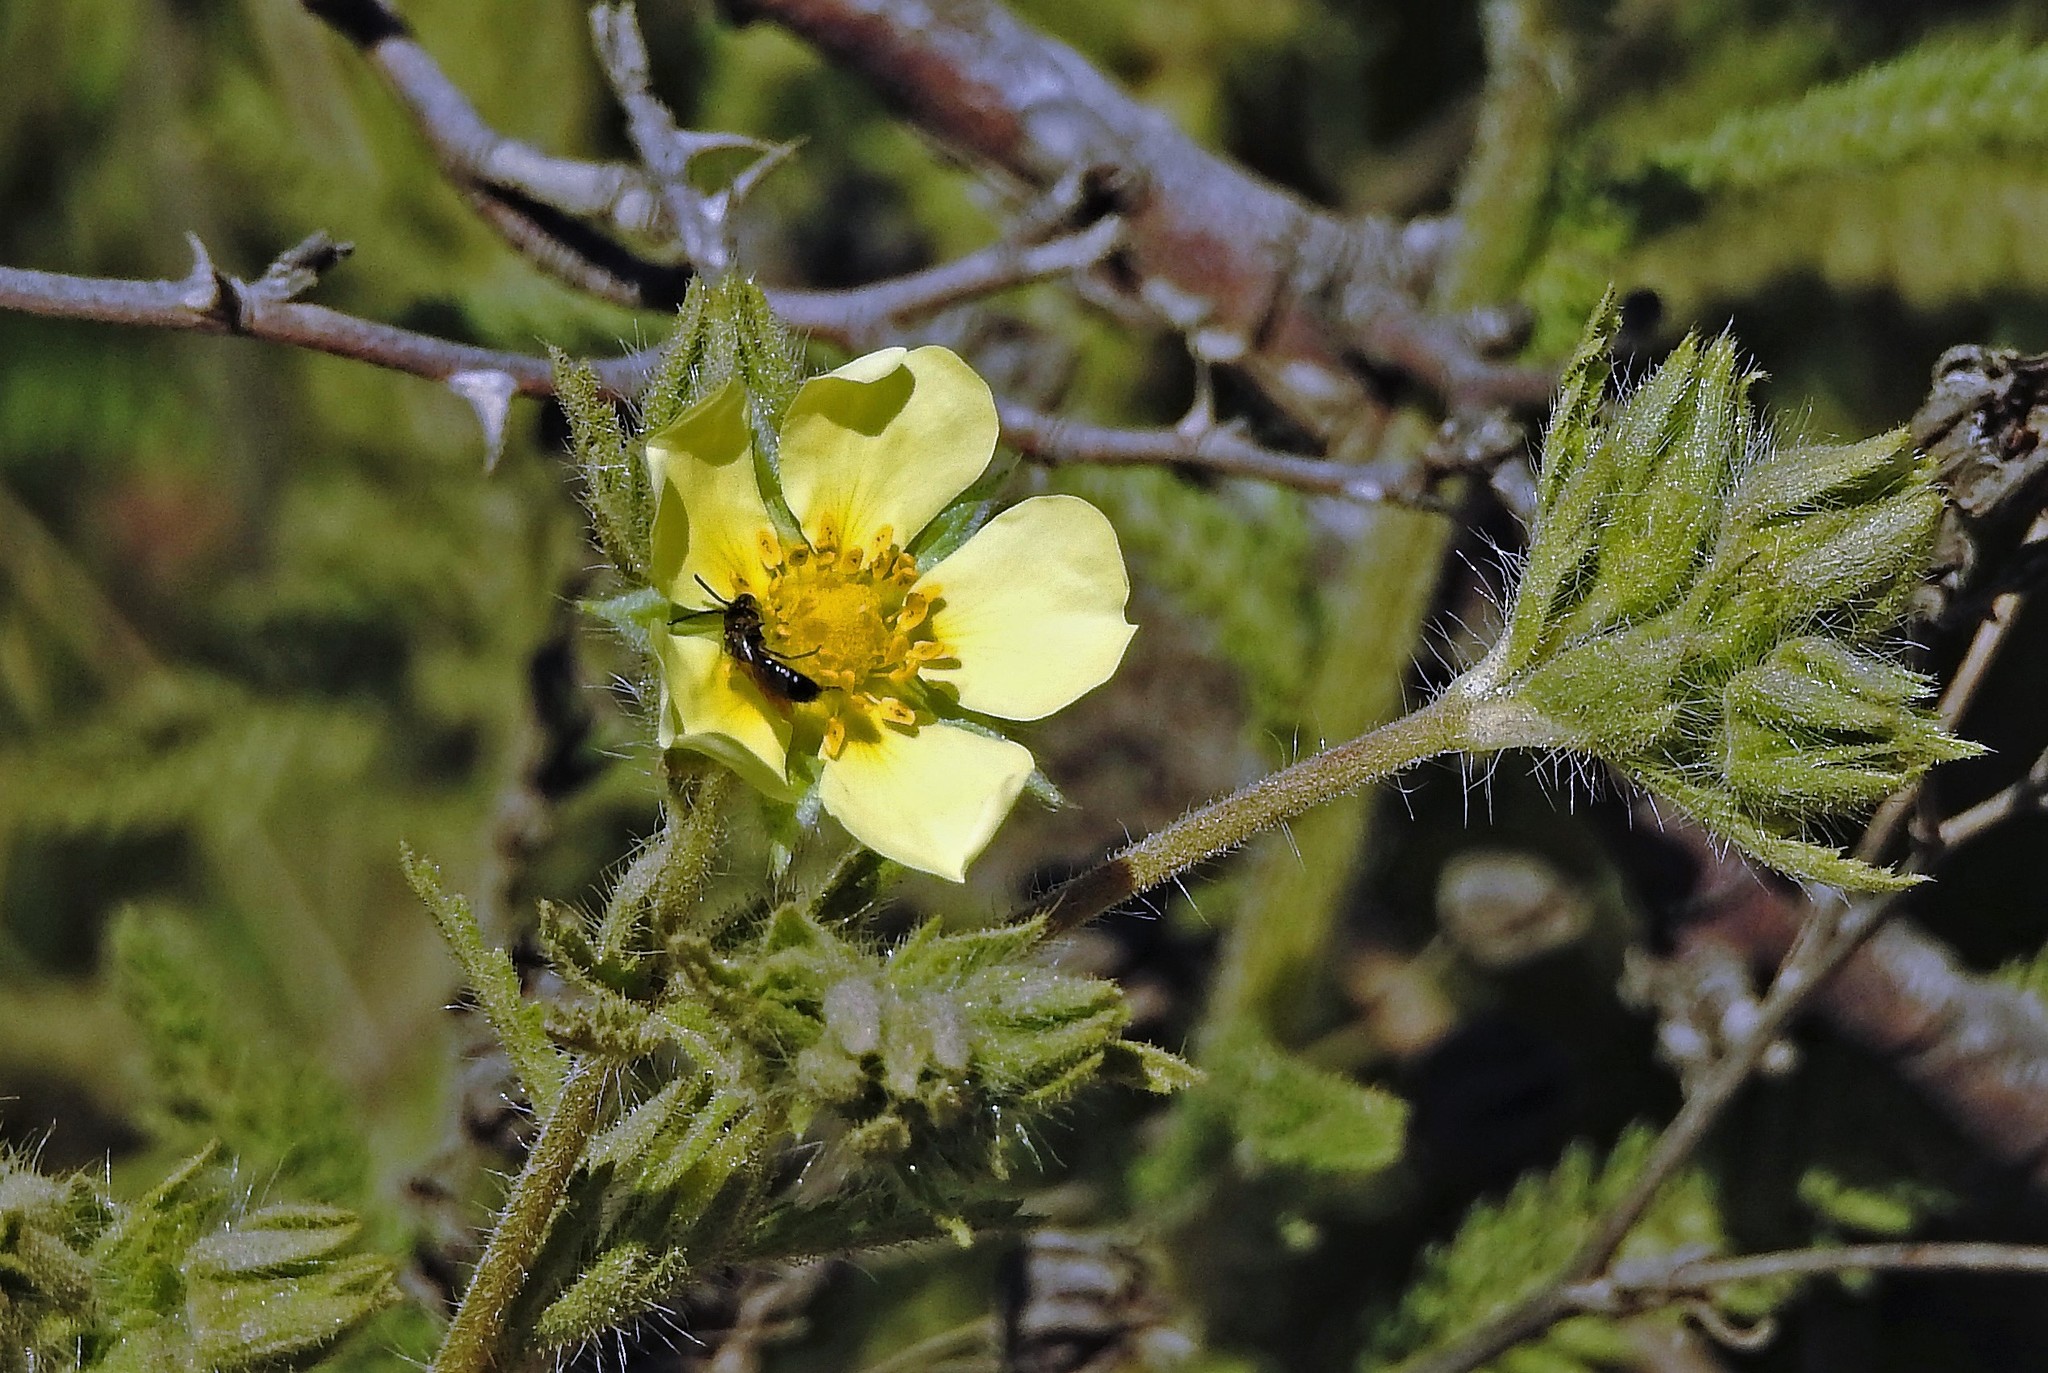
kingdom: Plantae
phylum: Tracheophyta
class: Magnoliopsida
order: Rosales
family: Rosaceae
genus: Potentilla
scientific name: Potentilla recta
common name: Sulphur cinquefoil
